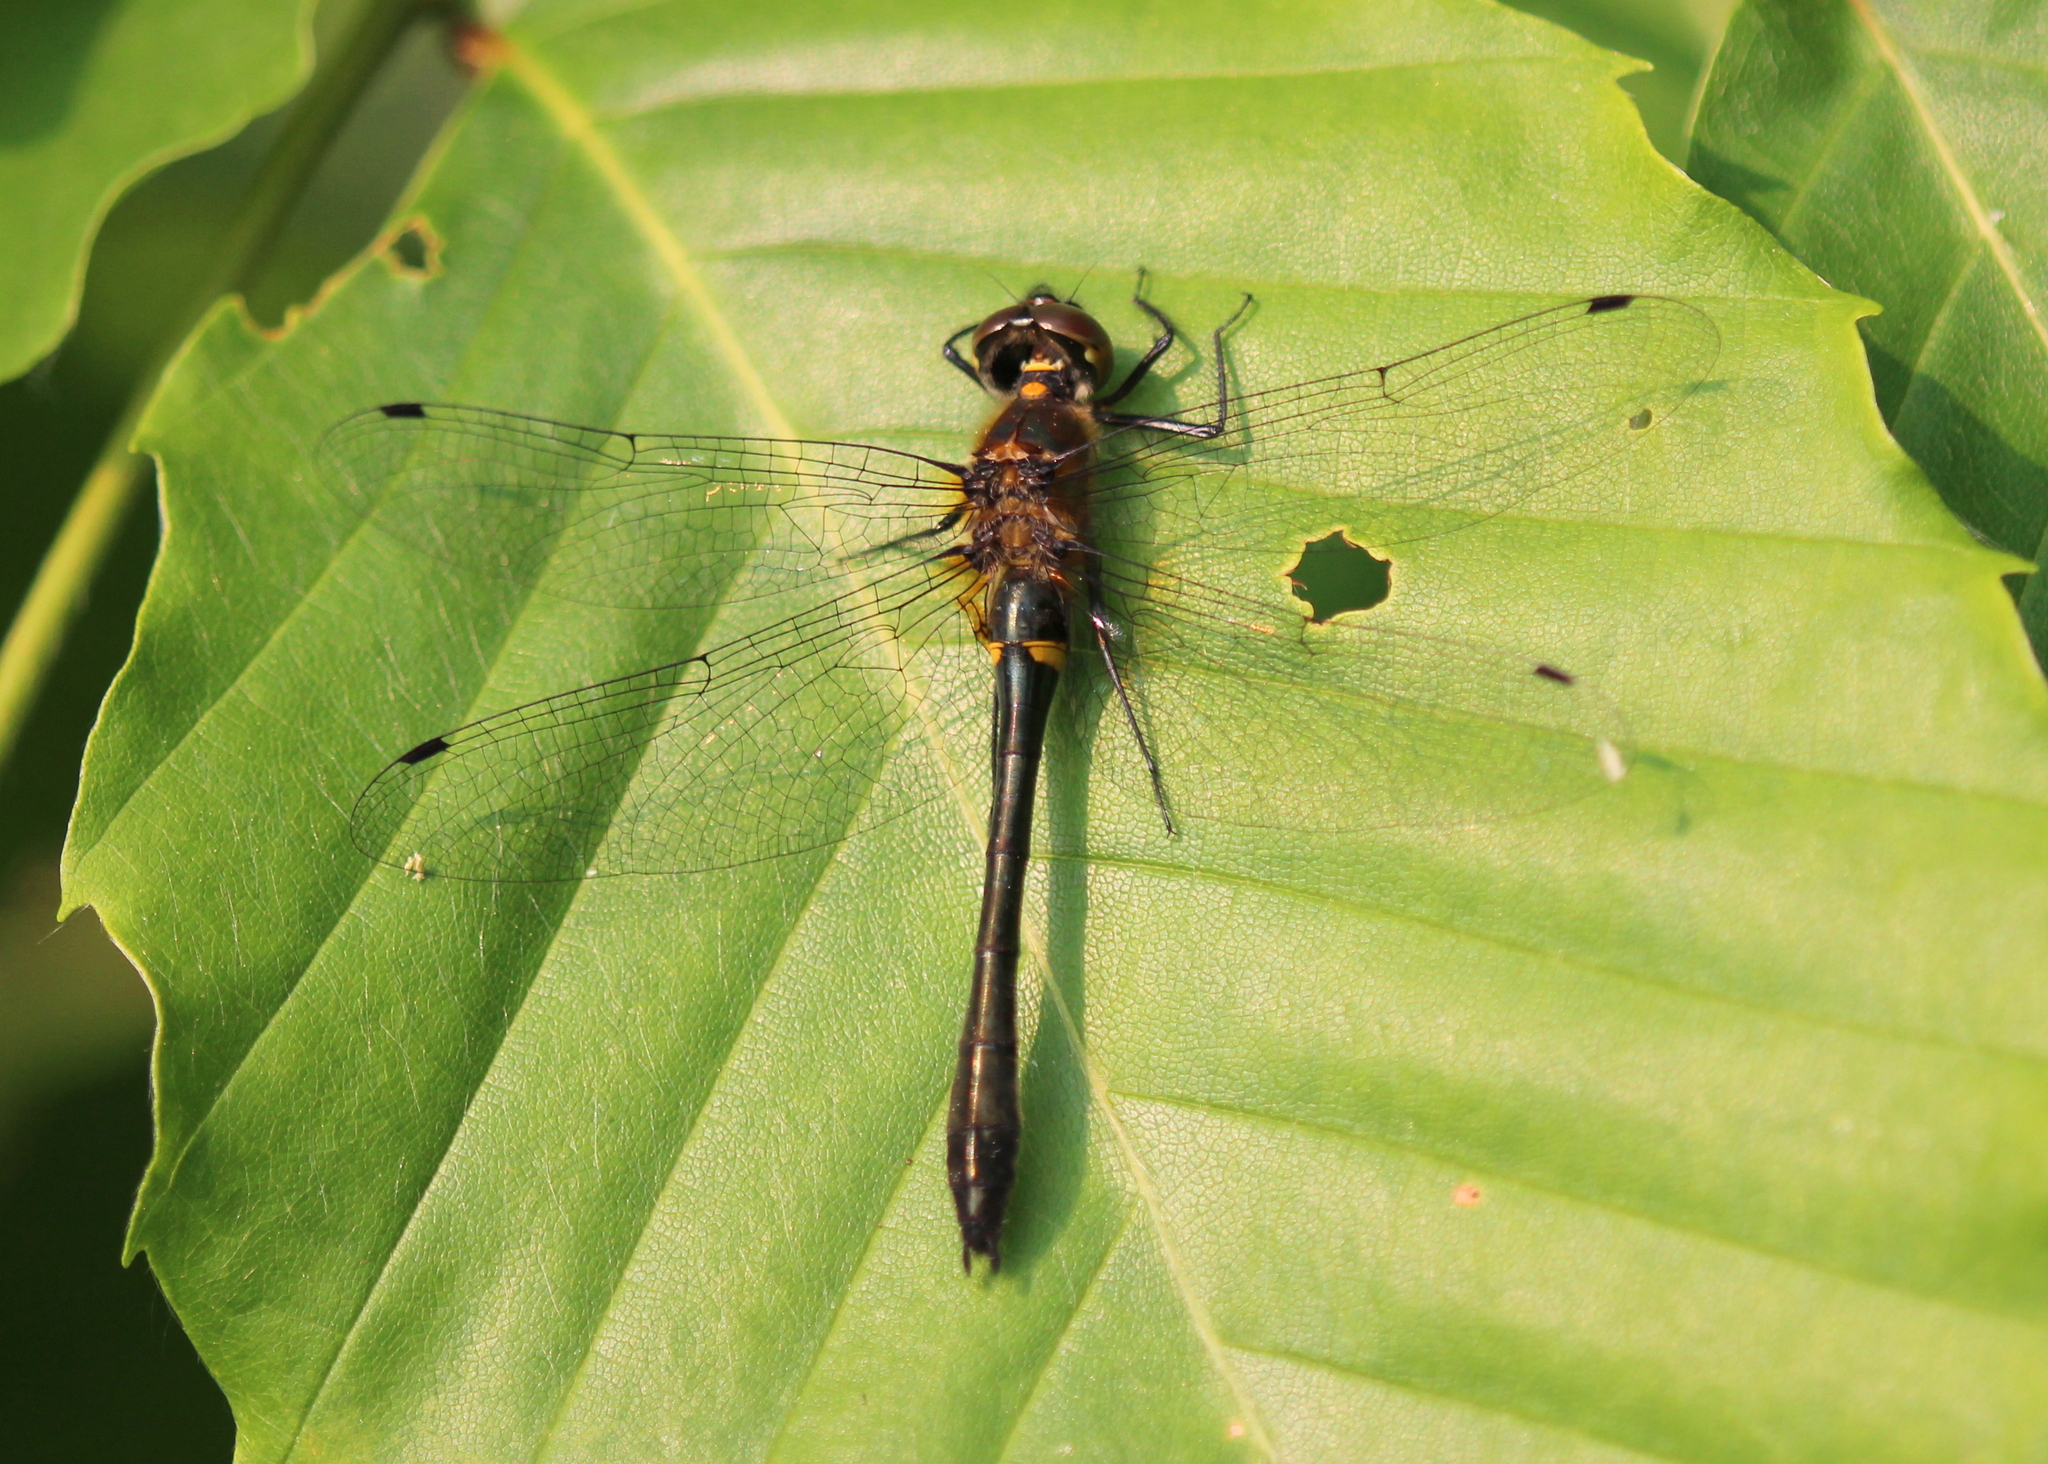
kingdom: Animalia
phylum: Arthropoda
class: Insecta
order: Odonata
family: Corduliidae
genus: Dorocordulia
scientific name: Dorocordulia libera
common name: Racket-tailed emerald
